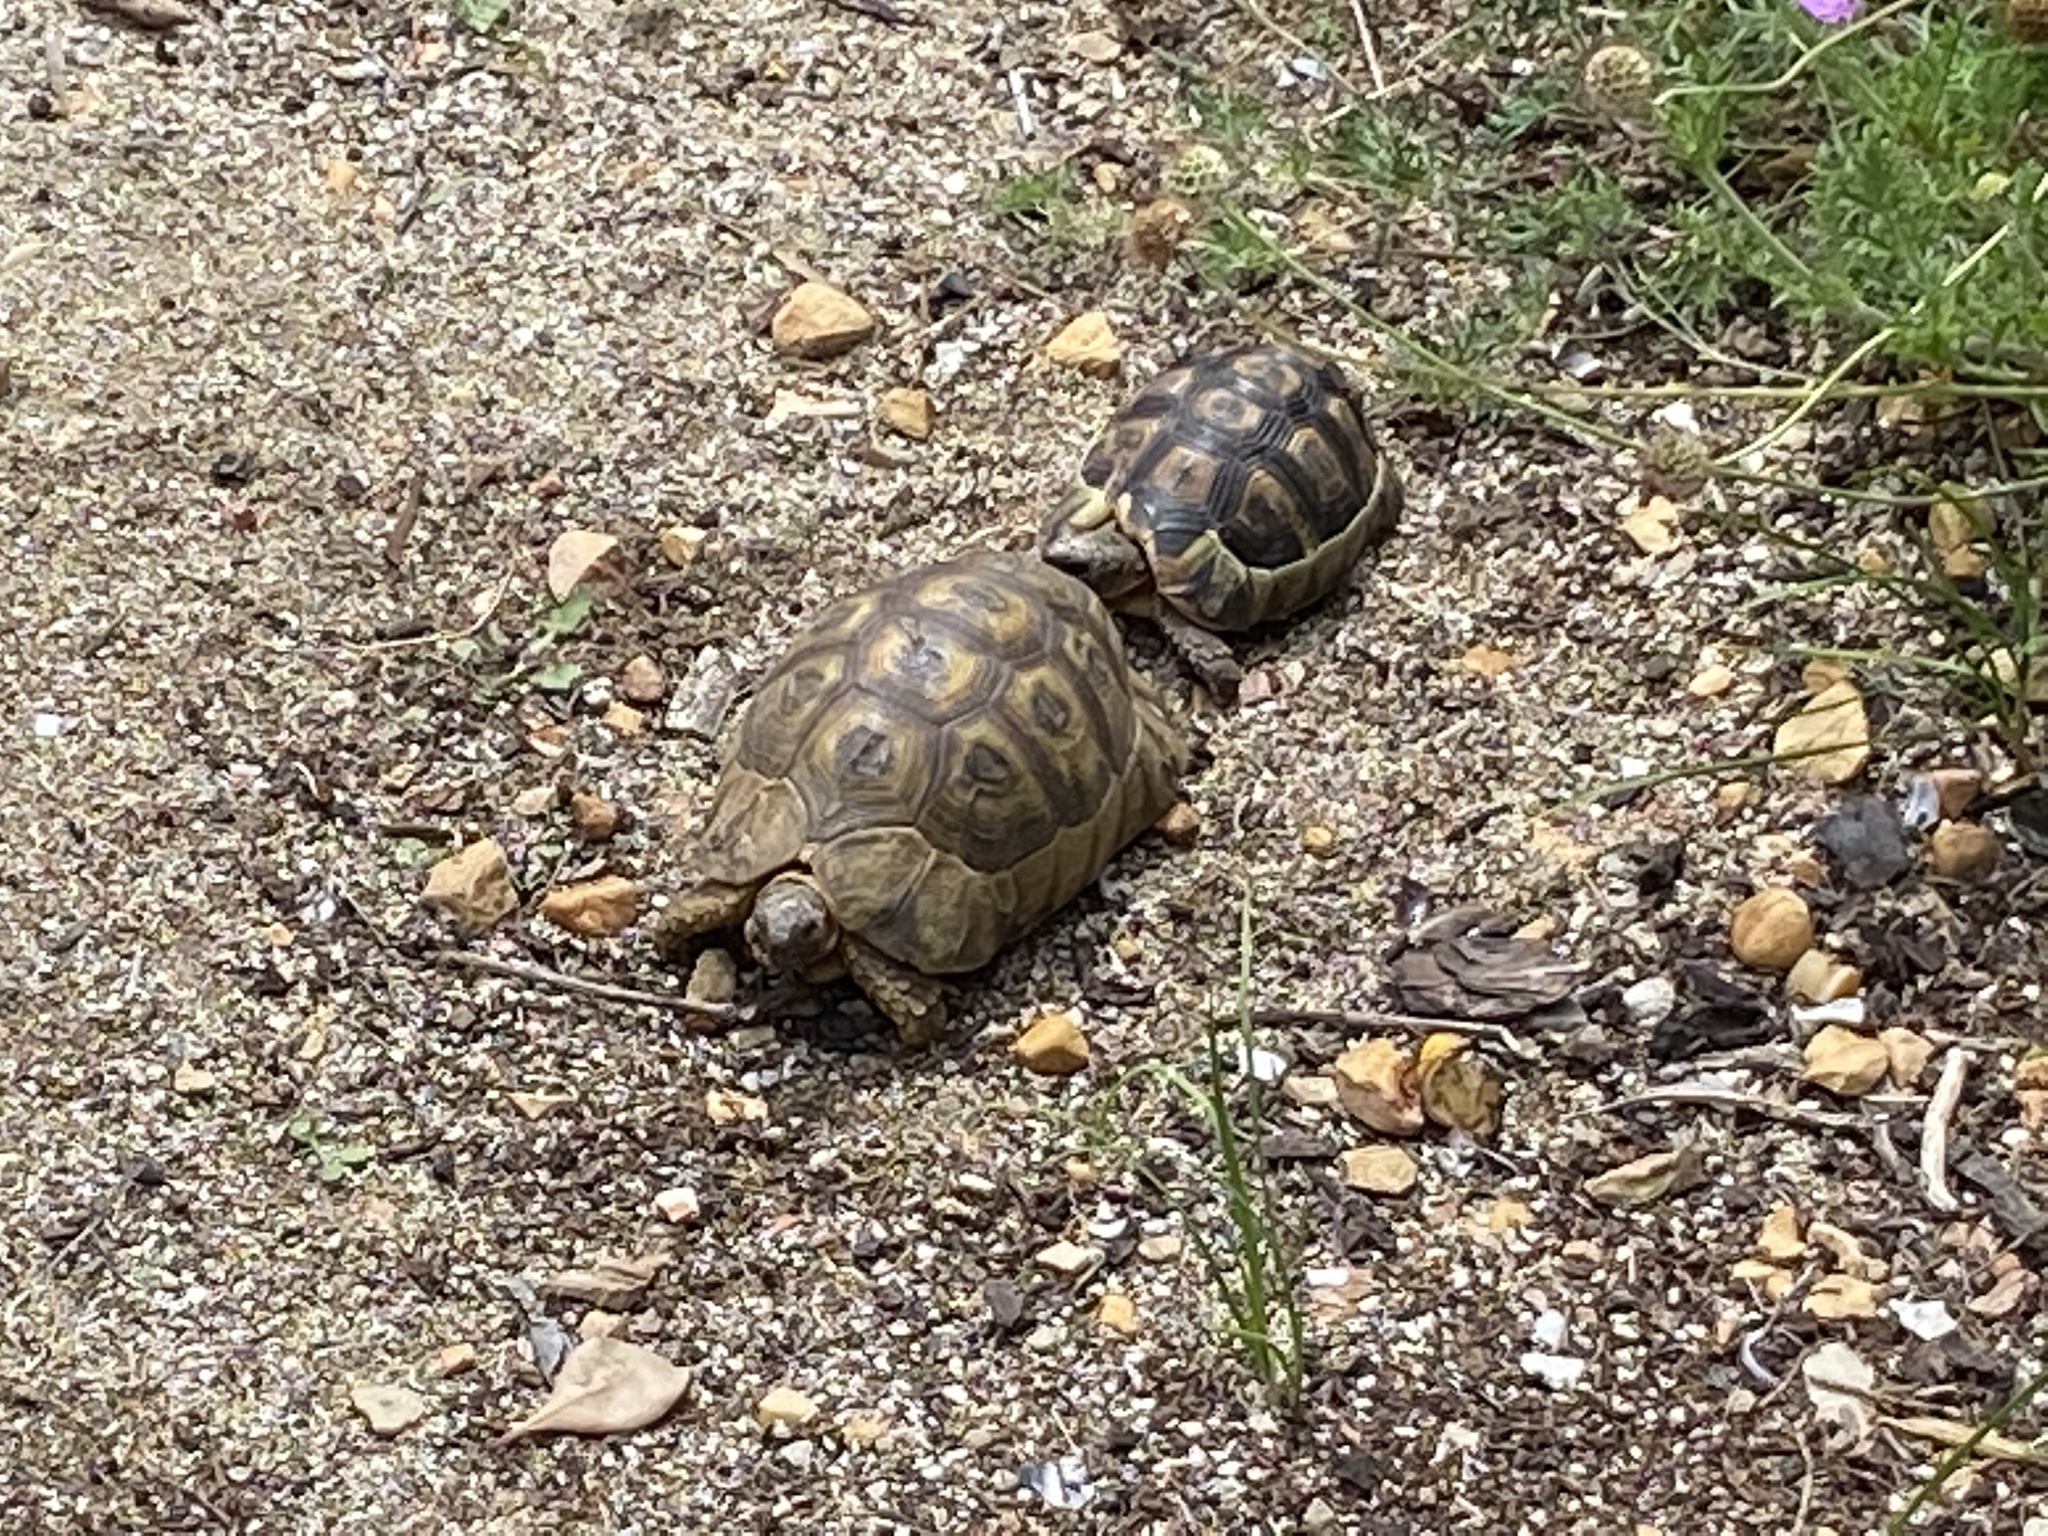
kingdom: Animalia
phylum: Chordata
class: Testudines
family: Testudinidae
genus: Chersina
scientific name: Chersina angulata
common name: South african bowsprit tortoise
